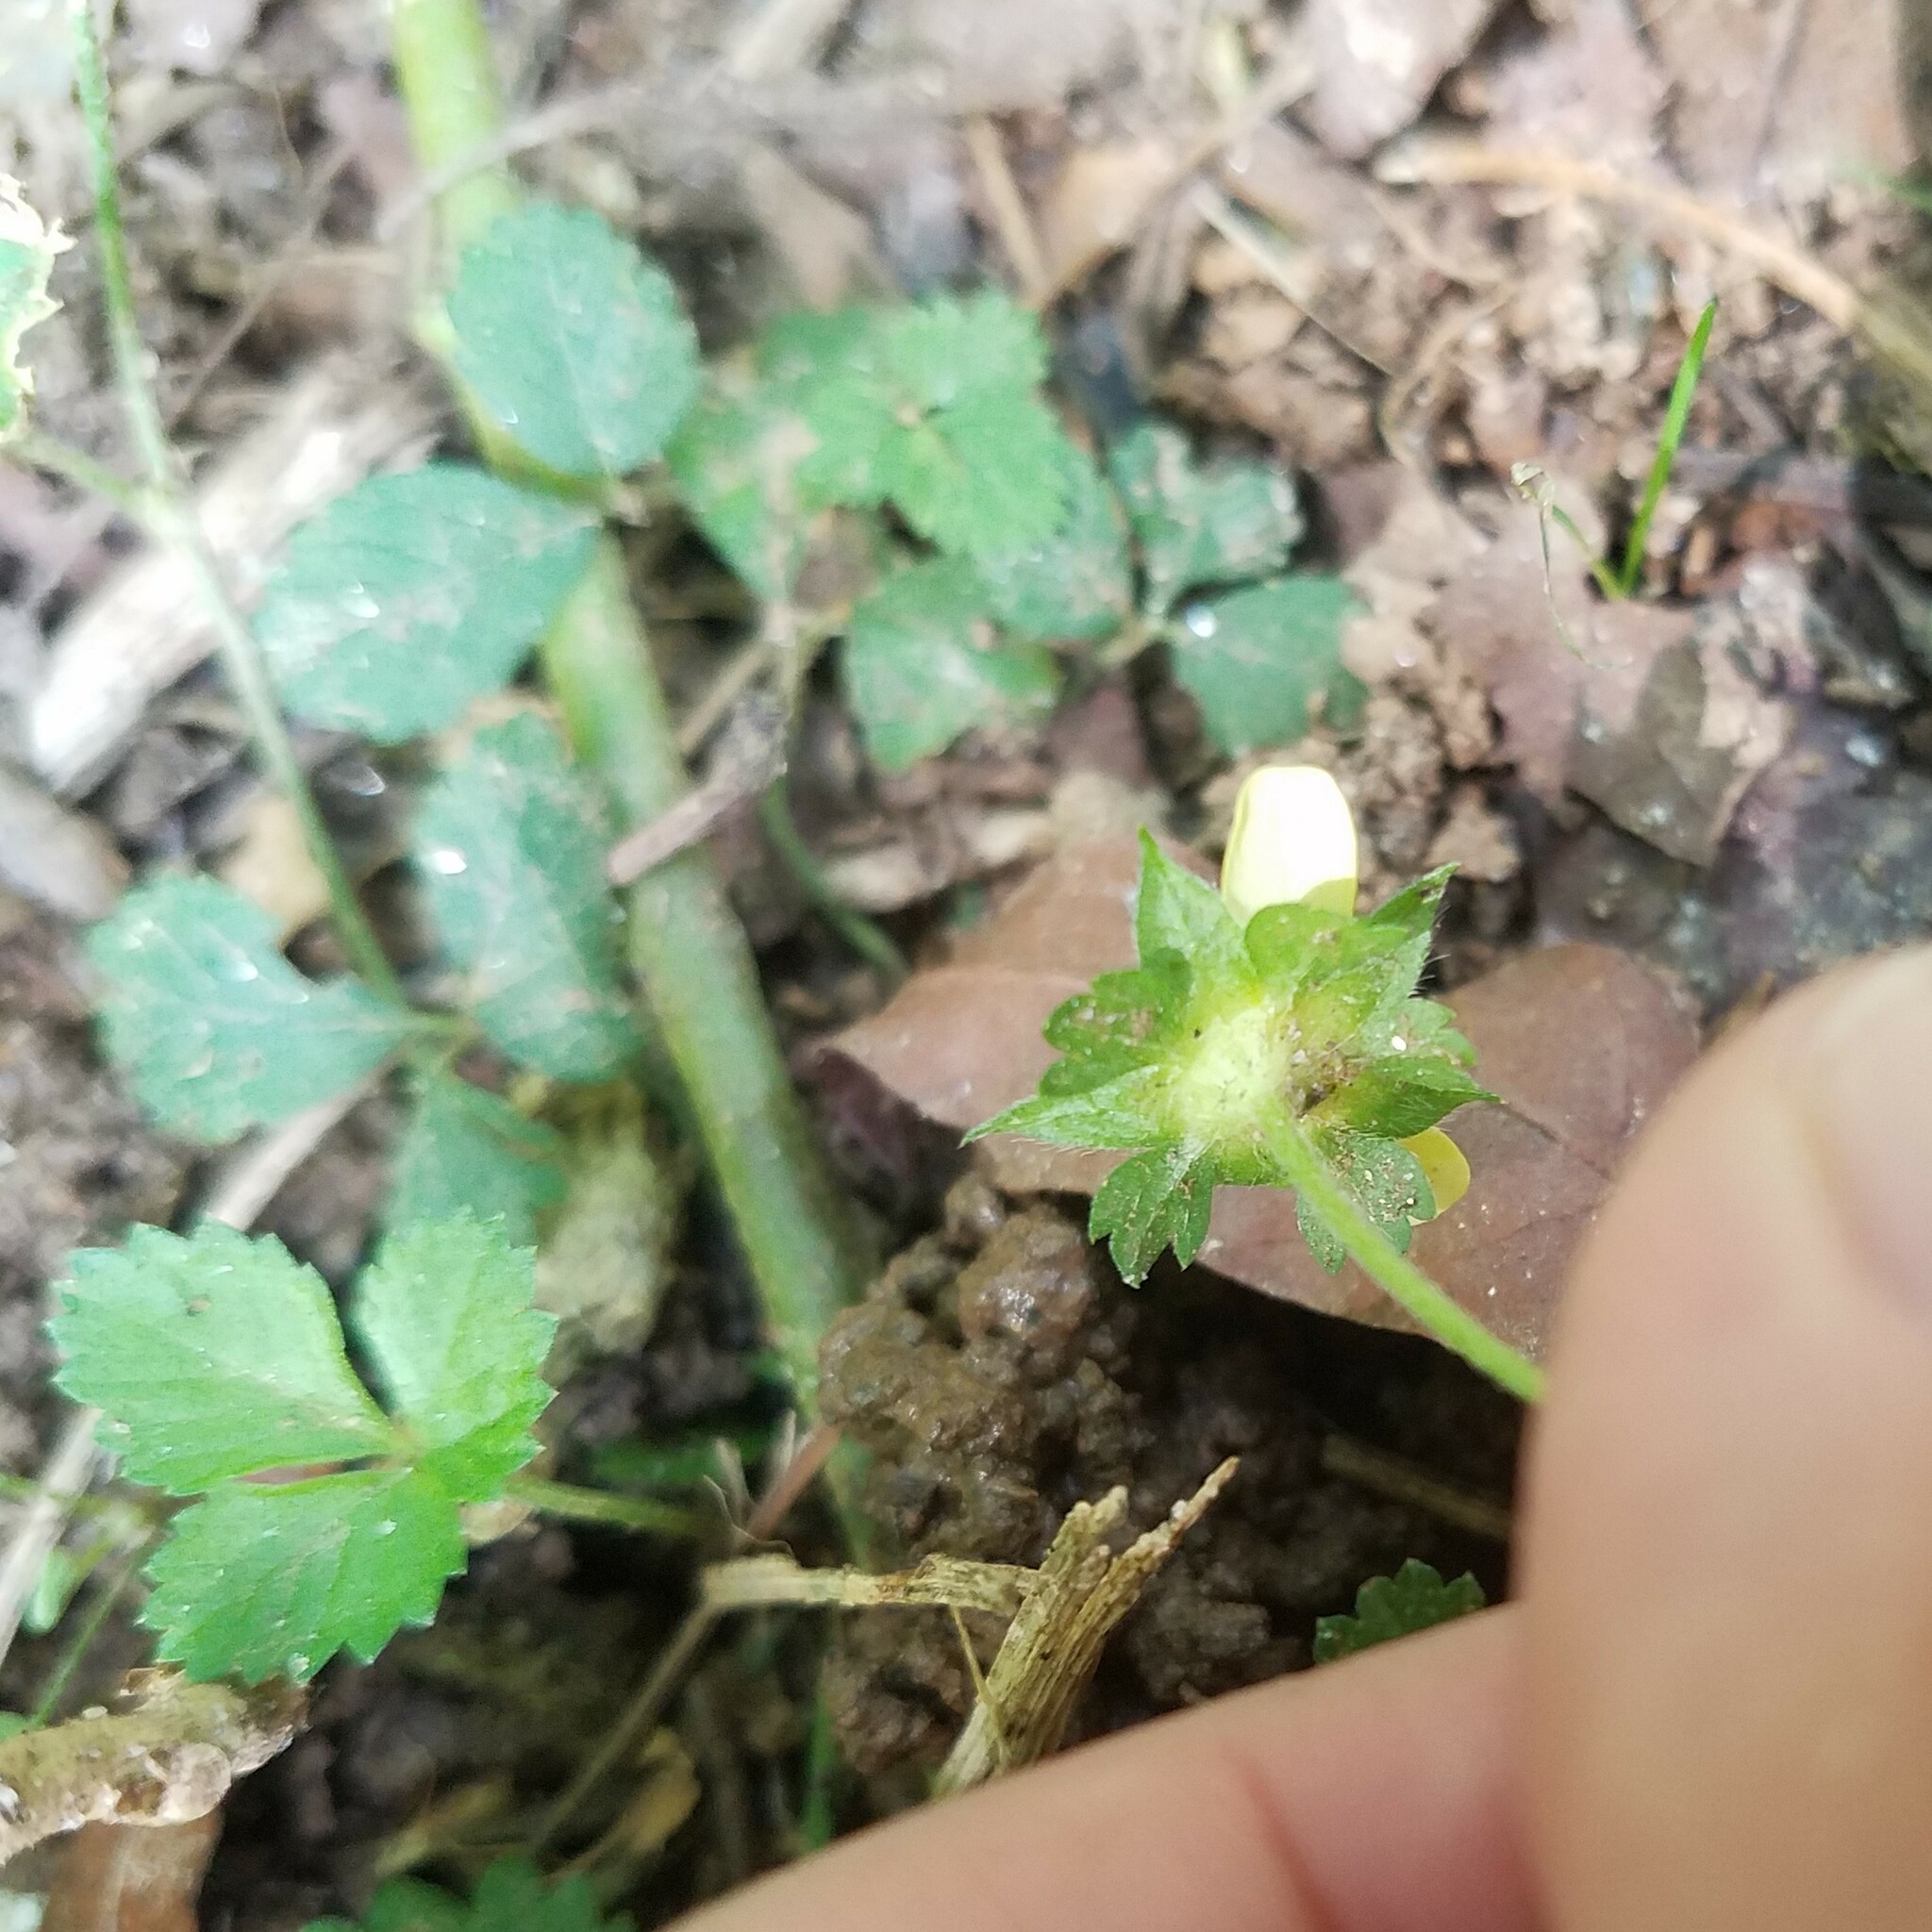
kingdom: Plantae
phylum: Tracheophyta
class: Magnoliopsida
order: Rosales
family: Rosaceae
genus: Potentilla
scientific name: Potentilla indica
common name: Yellow-flowered strawberry
